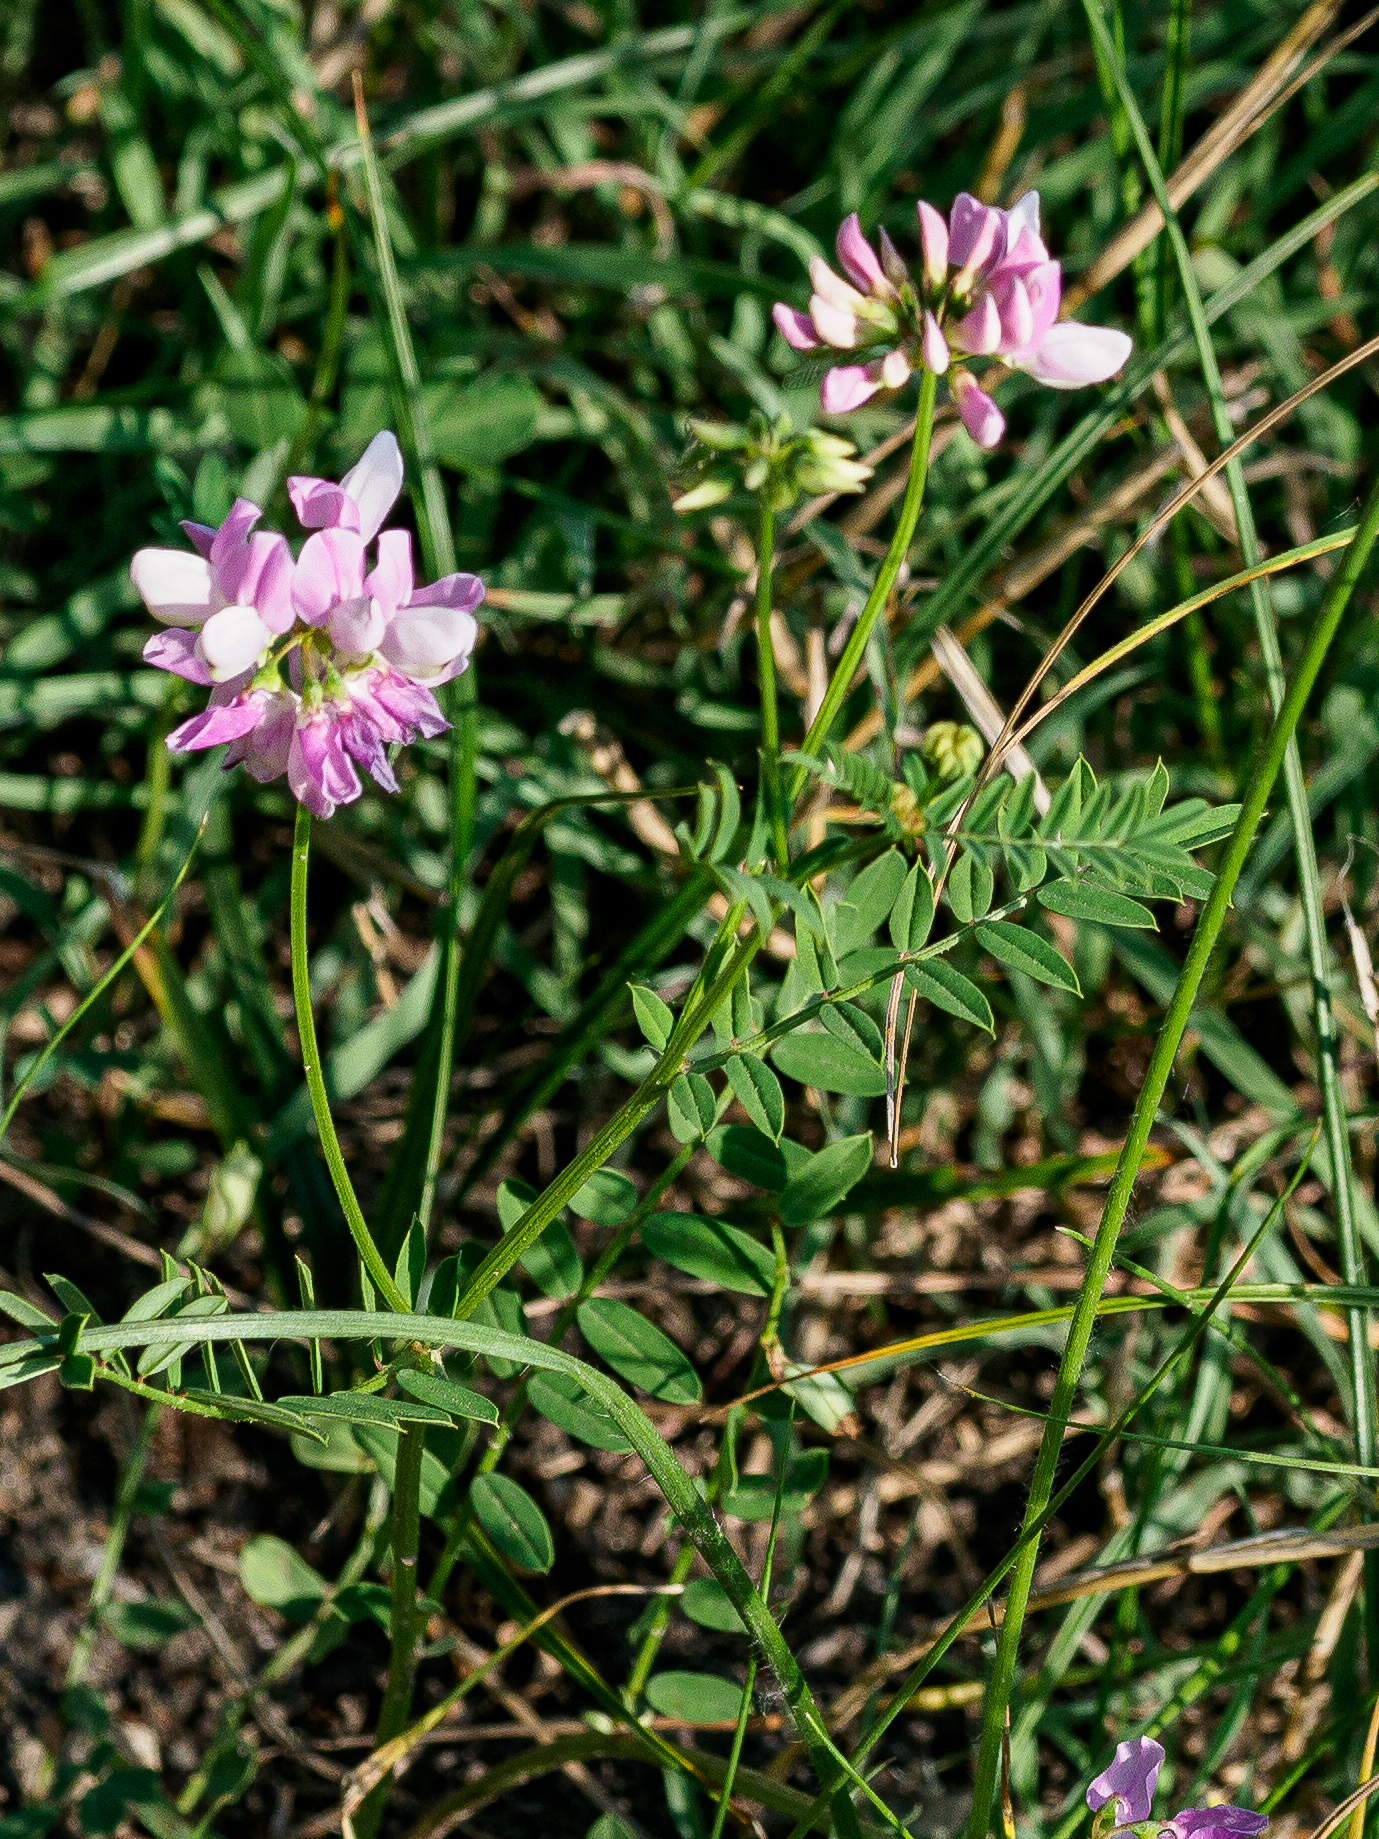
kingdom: Plantae
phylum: Tracheophyta
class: Magnoliopsida
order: Fabales
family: Fabaceae
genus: Coronilla
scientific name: Coronilla varia
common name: Crownvetch
